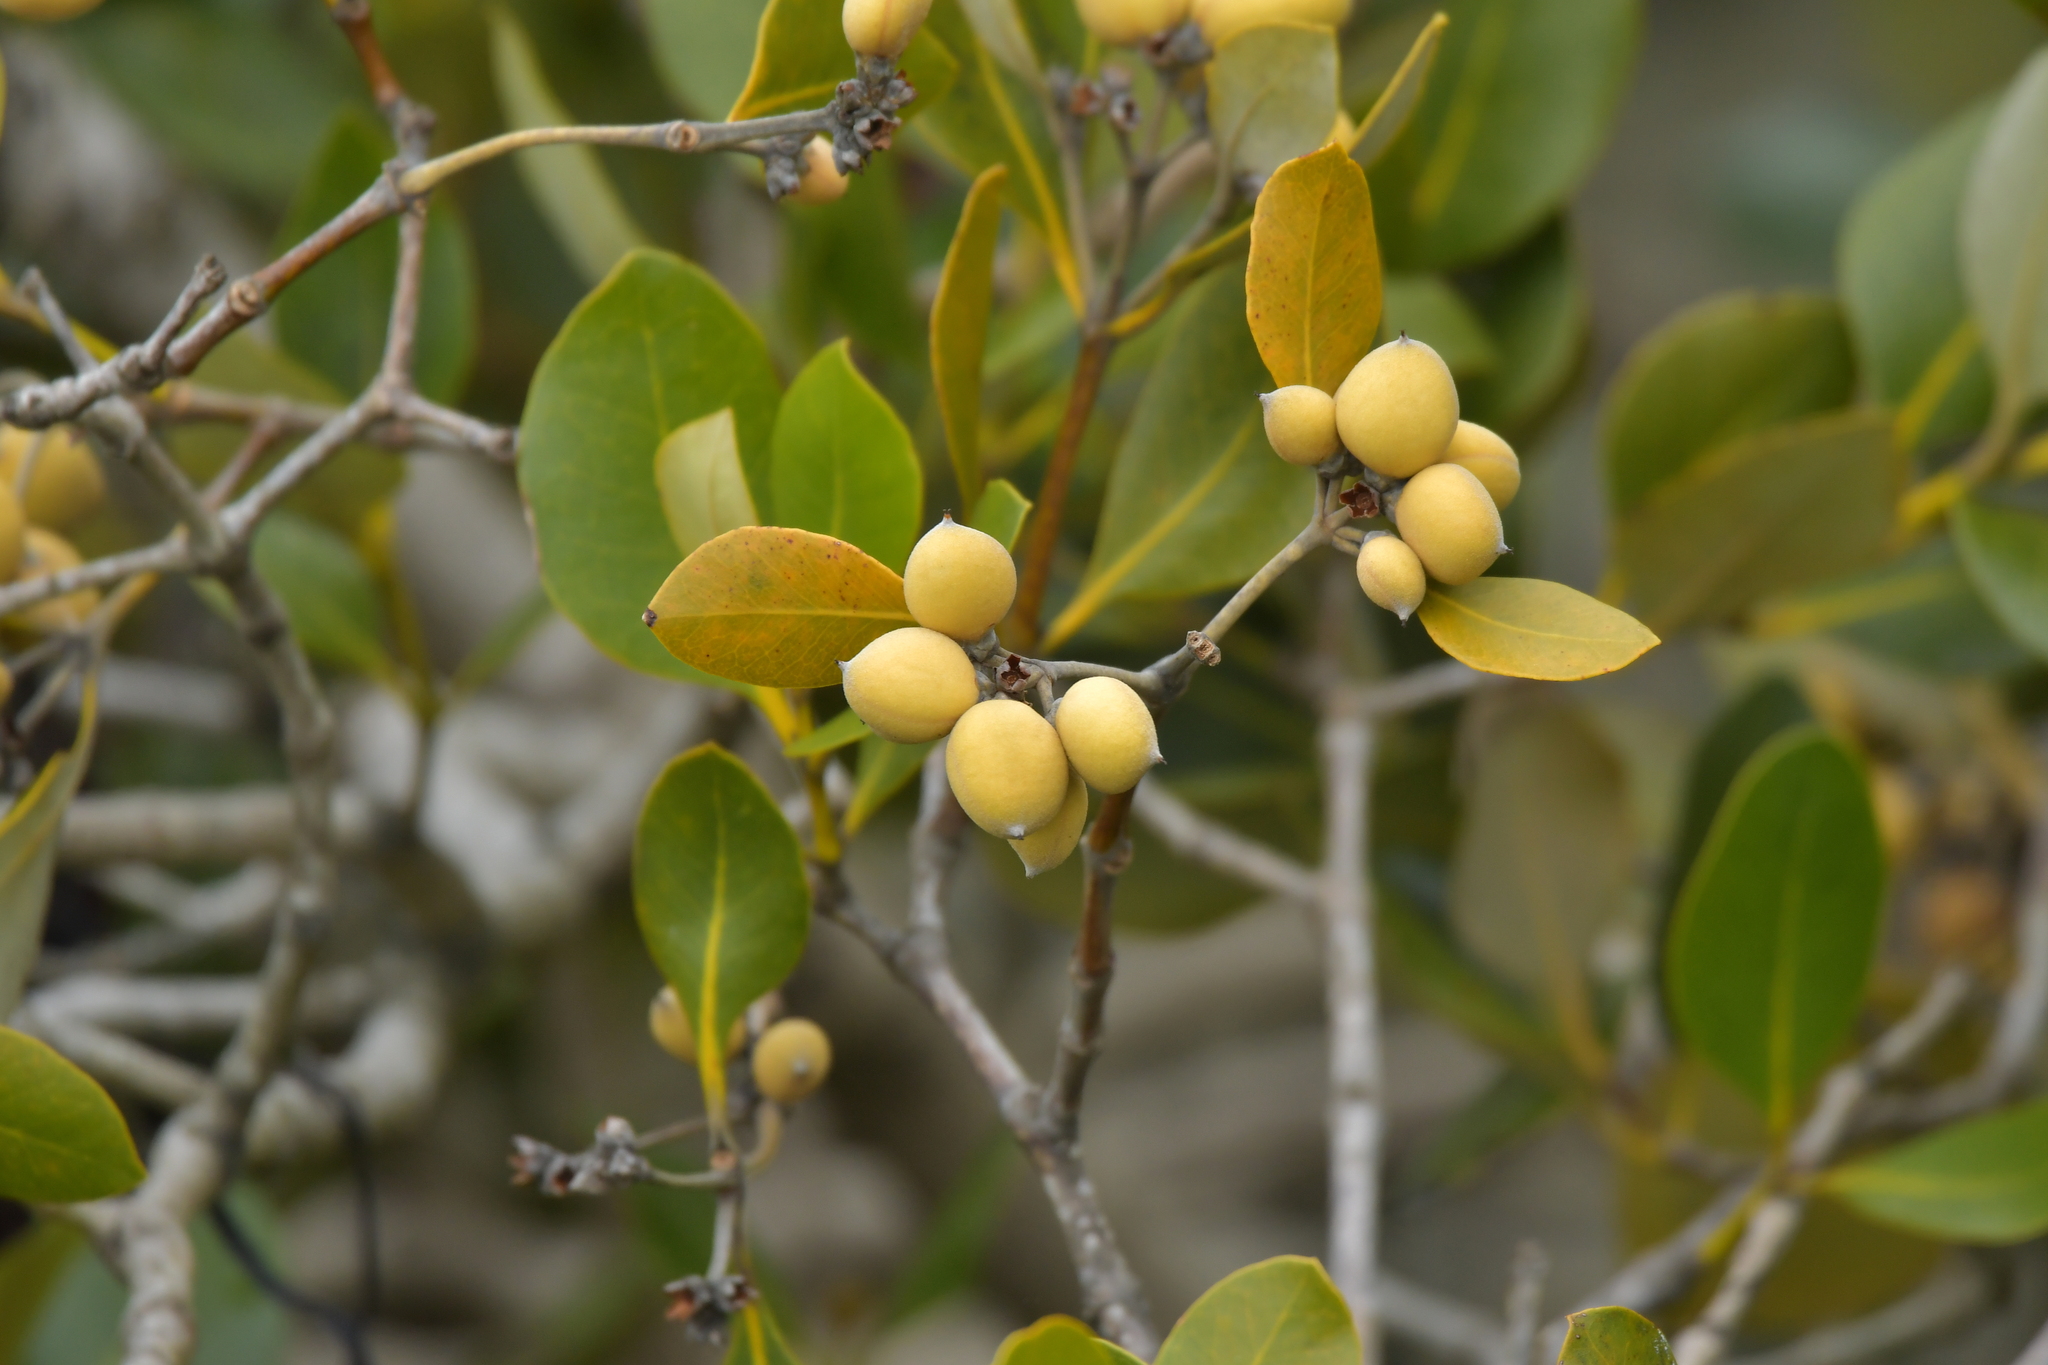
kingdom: Plantae
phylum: Tracheophyta
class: Magnoliopsida
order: Lamiales
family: Acanthaceae
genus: Avicennia
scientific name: Avicennia marina
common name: Gray mangrove
